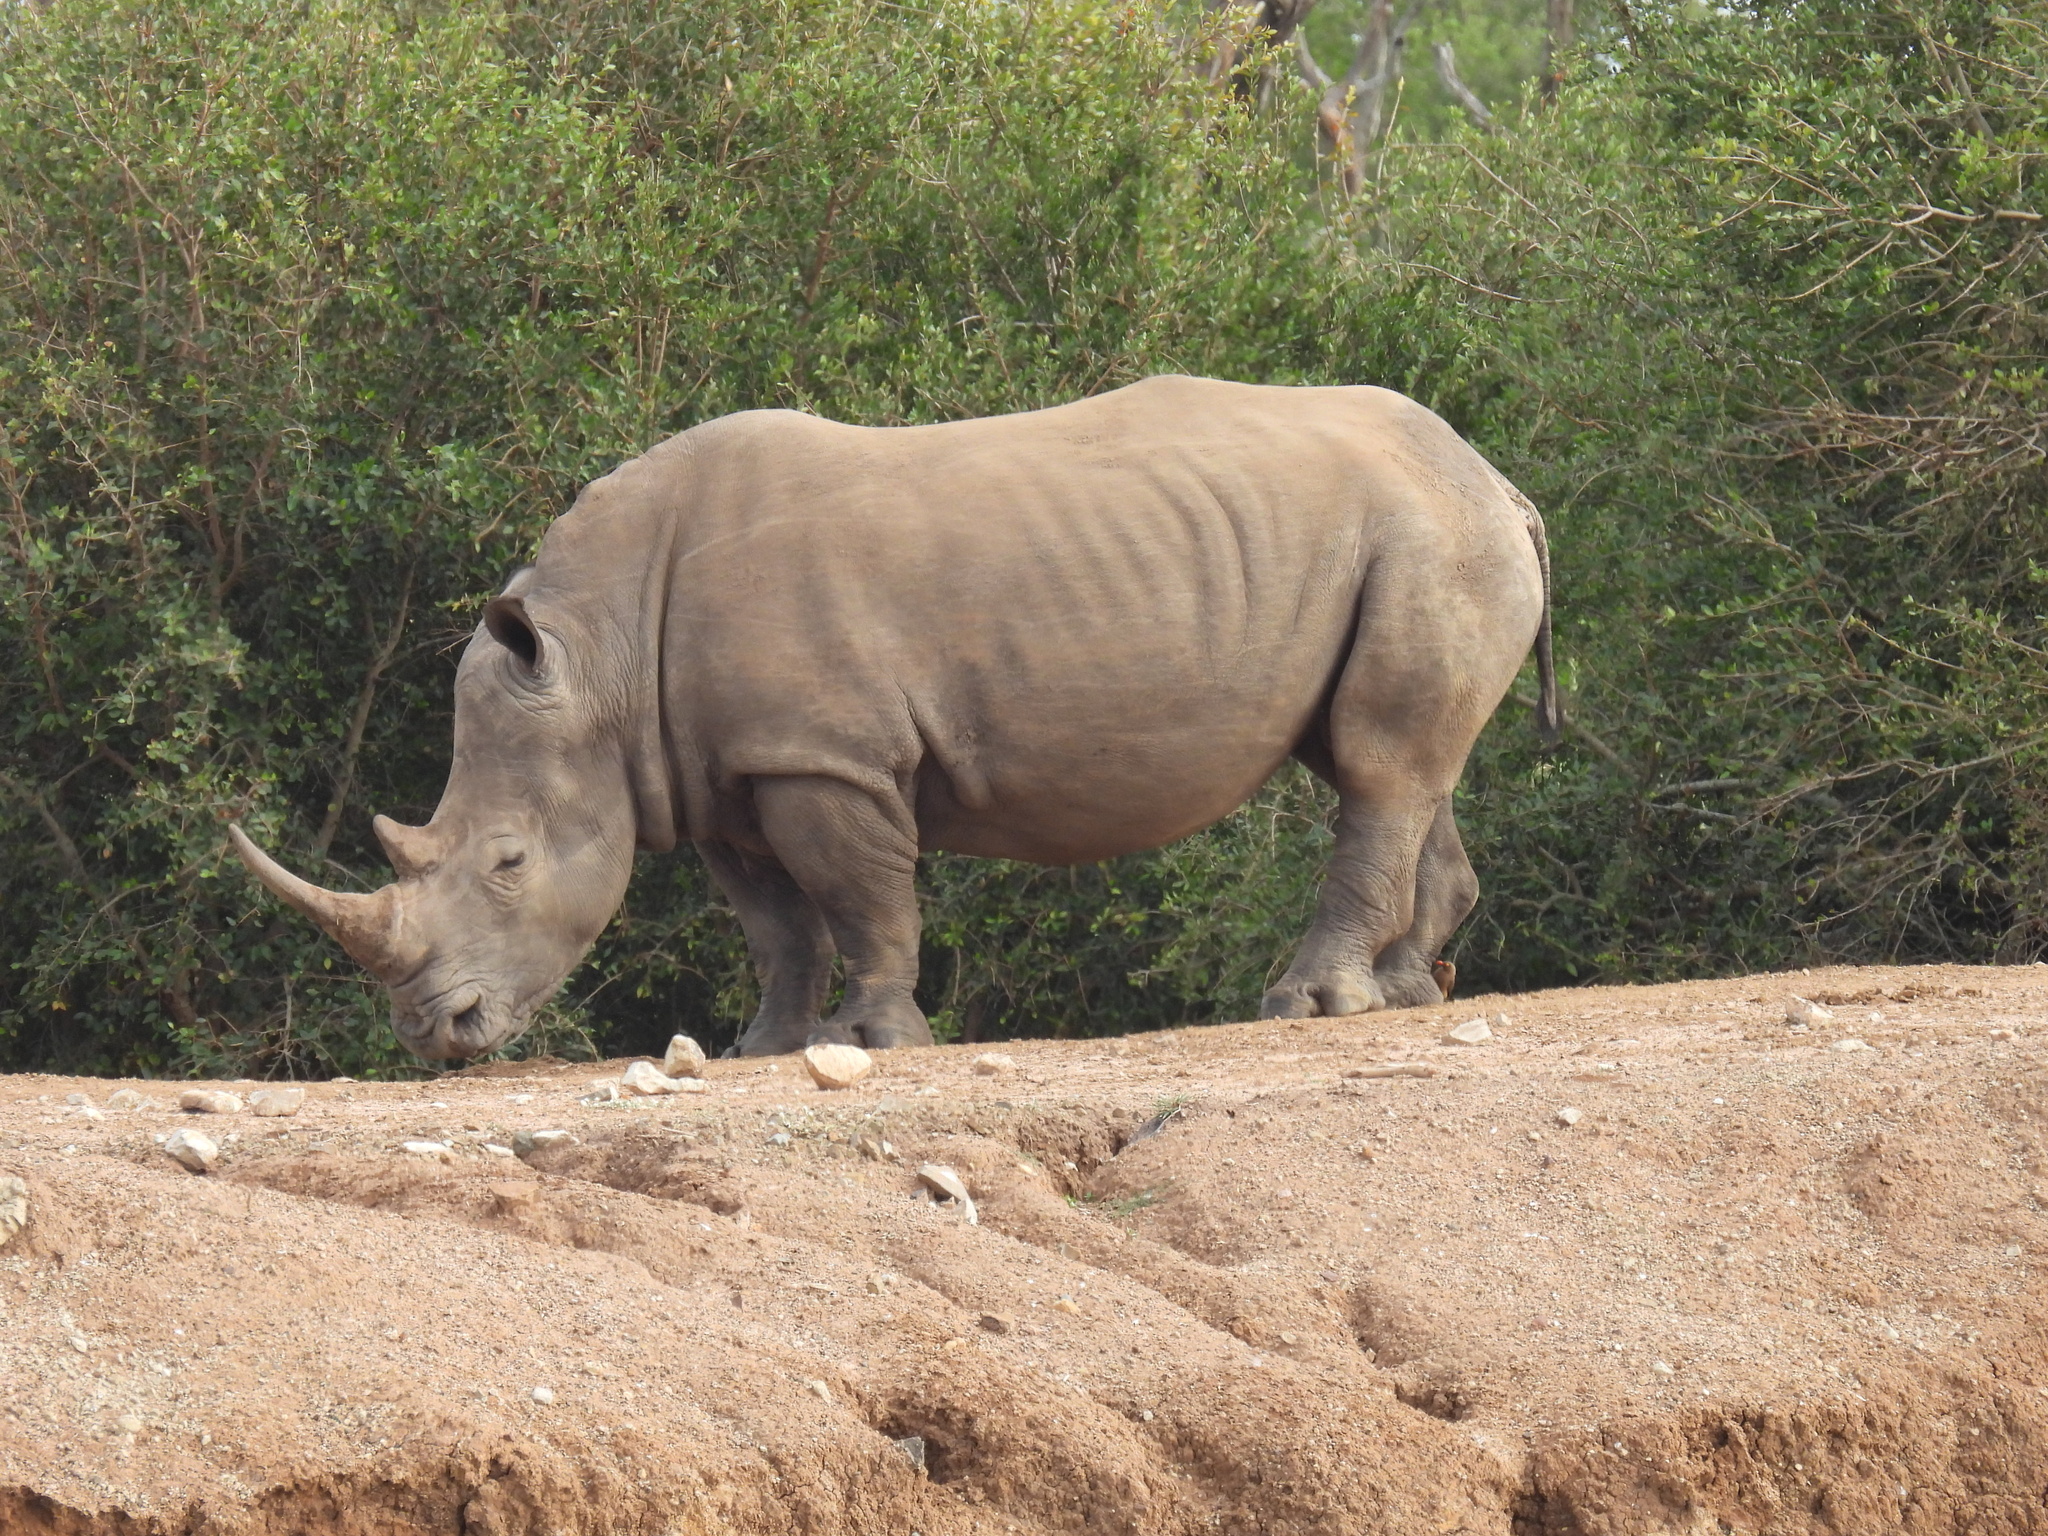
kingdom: Animalia
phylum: Chordata
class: Mammalia
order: Perissodactyla
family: Rhinocerotidae
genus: Ceratotherium
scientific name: Ceratotherium simum
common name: White rhinoceros
